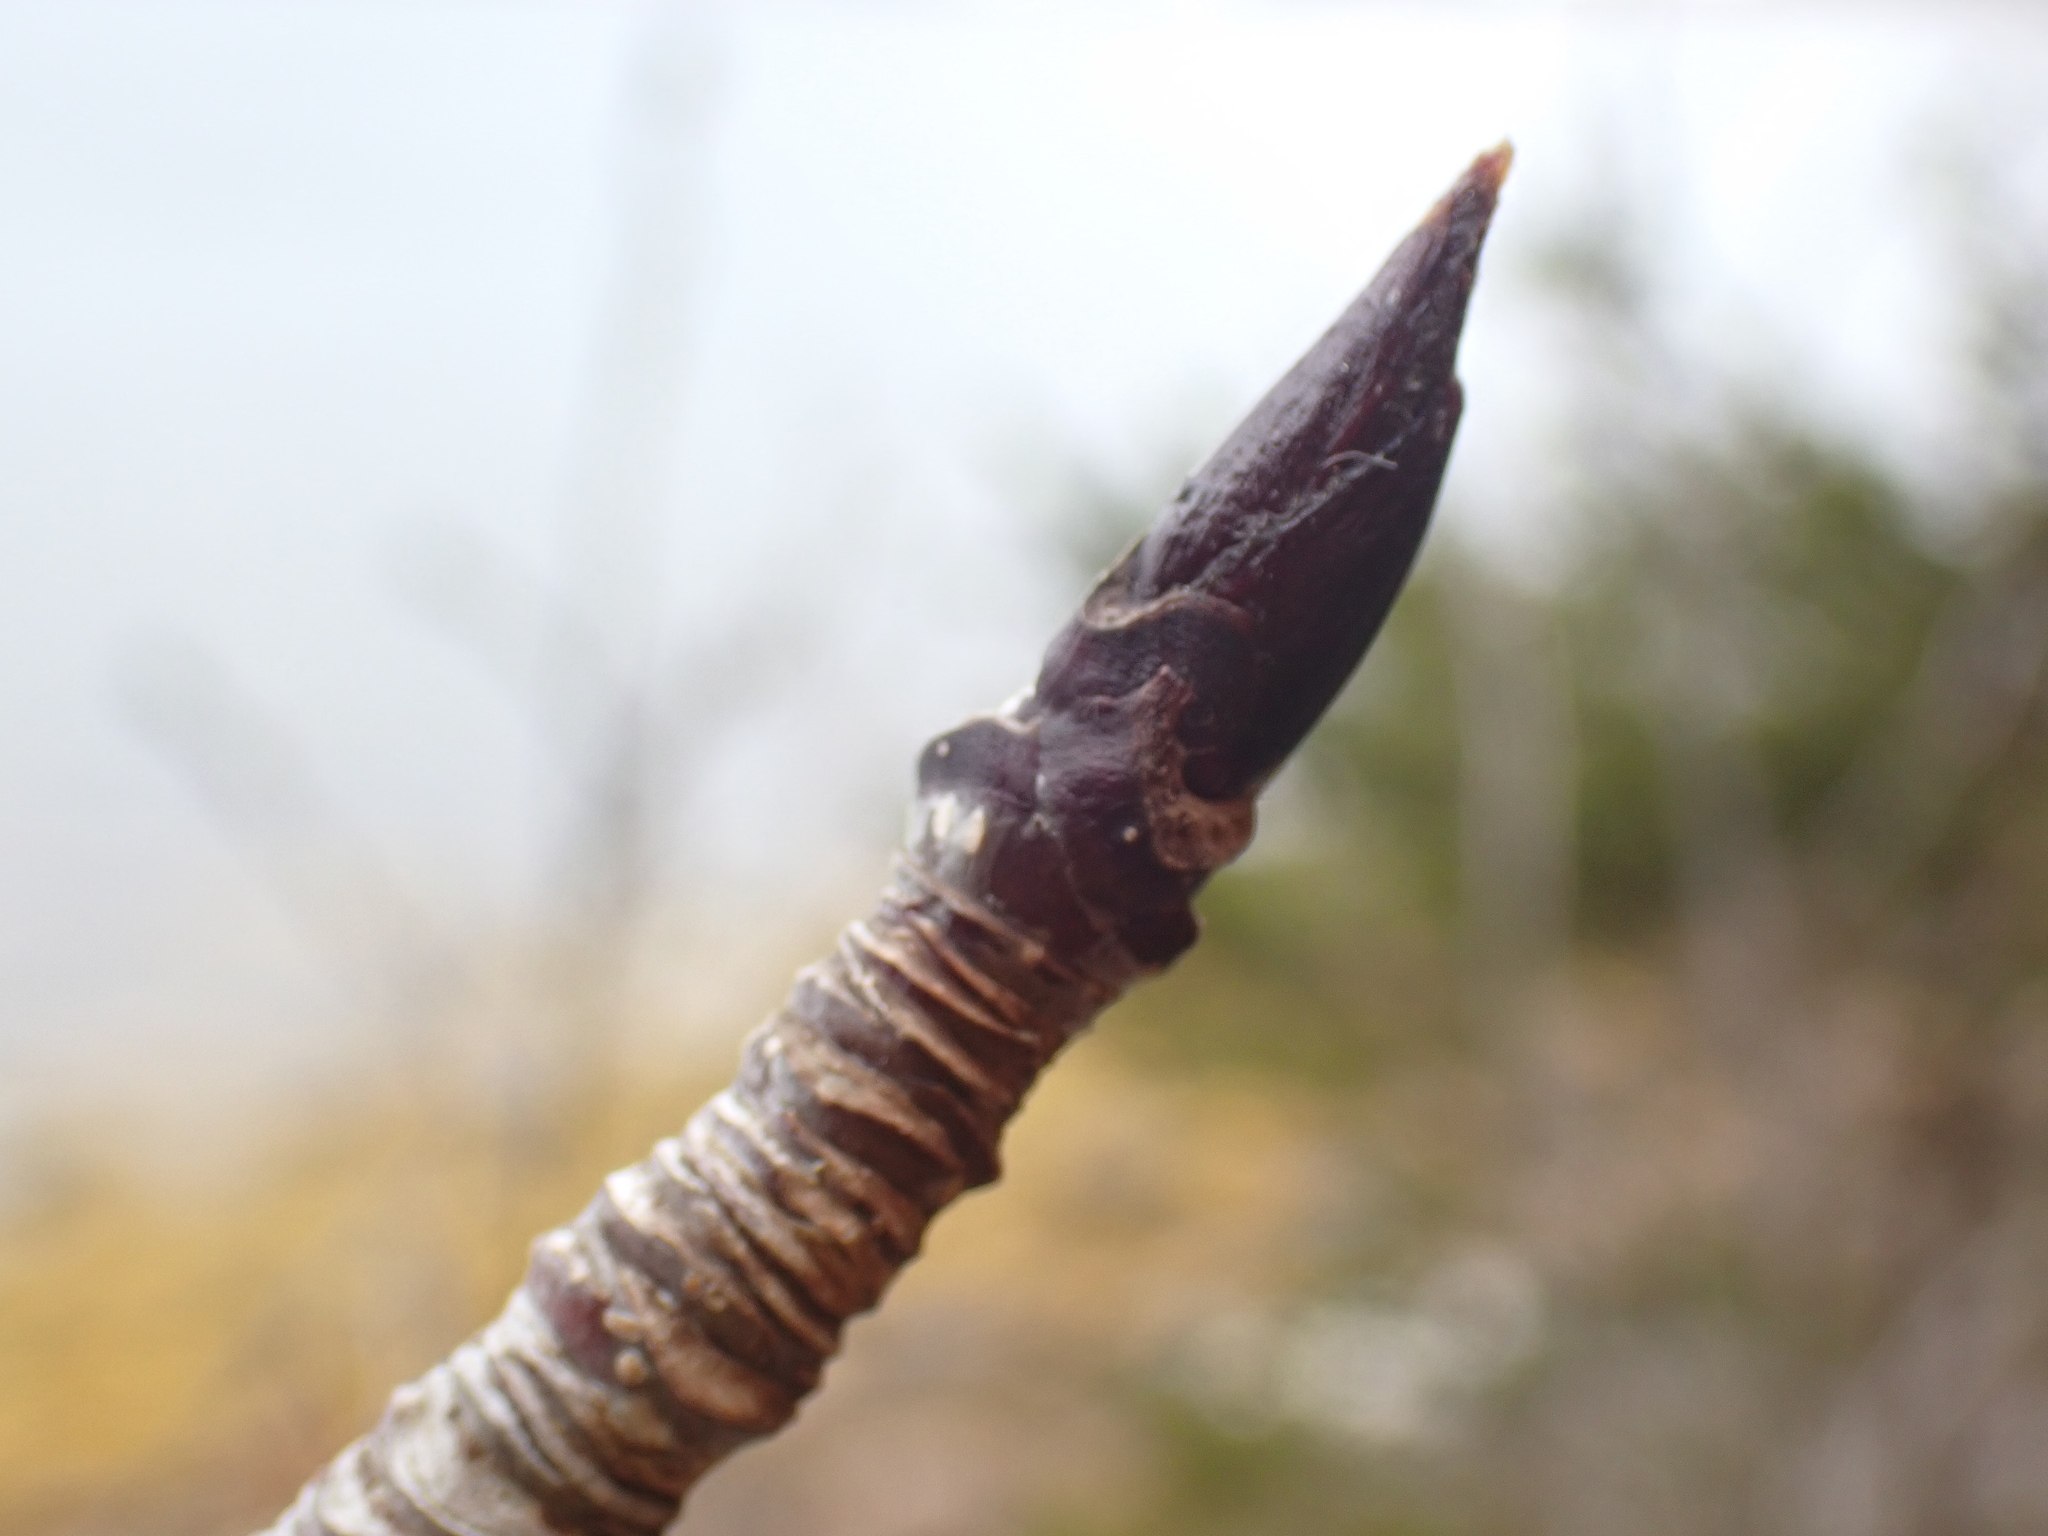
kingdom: Plantae
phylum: Tracheophyta
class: Magnoliopsida
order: Rosales
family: Rosaceae
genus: Sorbus
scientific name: Sorbus americana
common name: American mountain-ash
